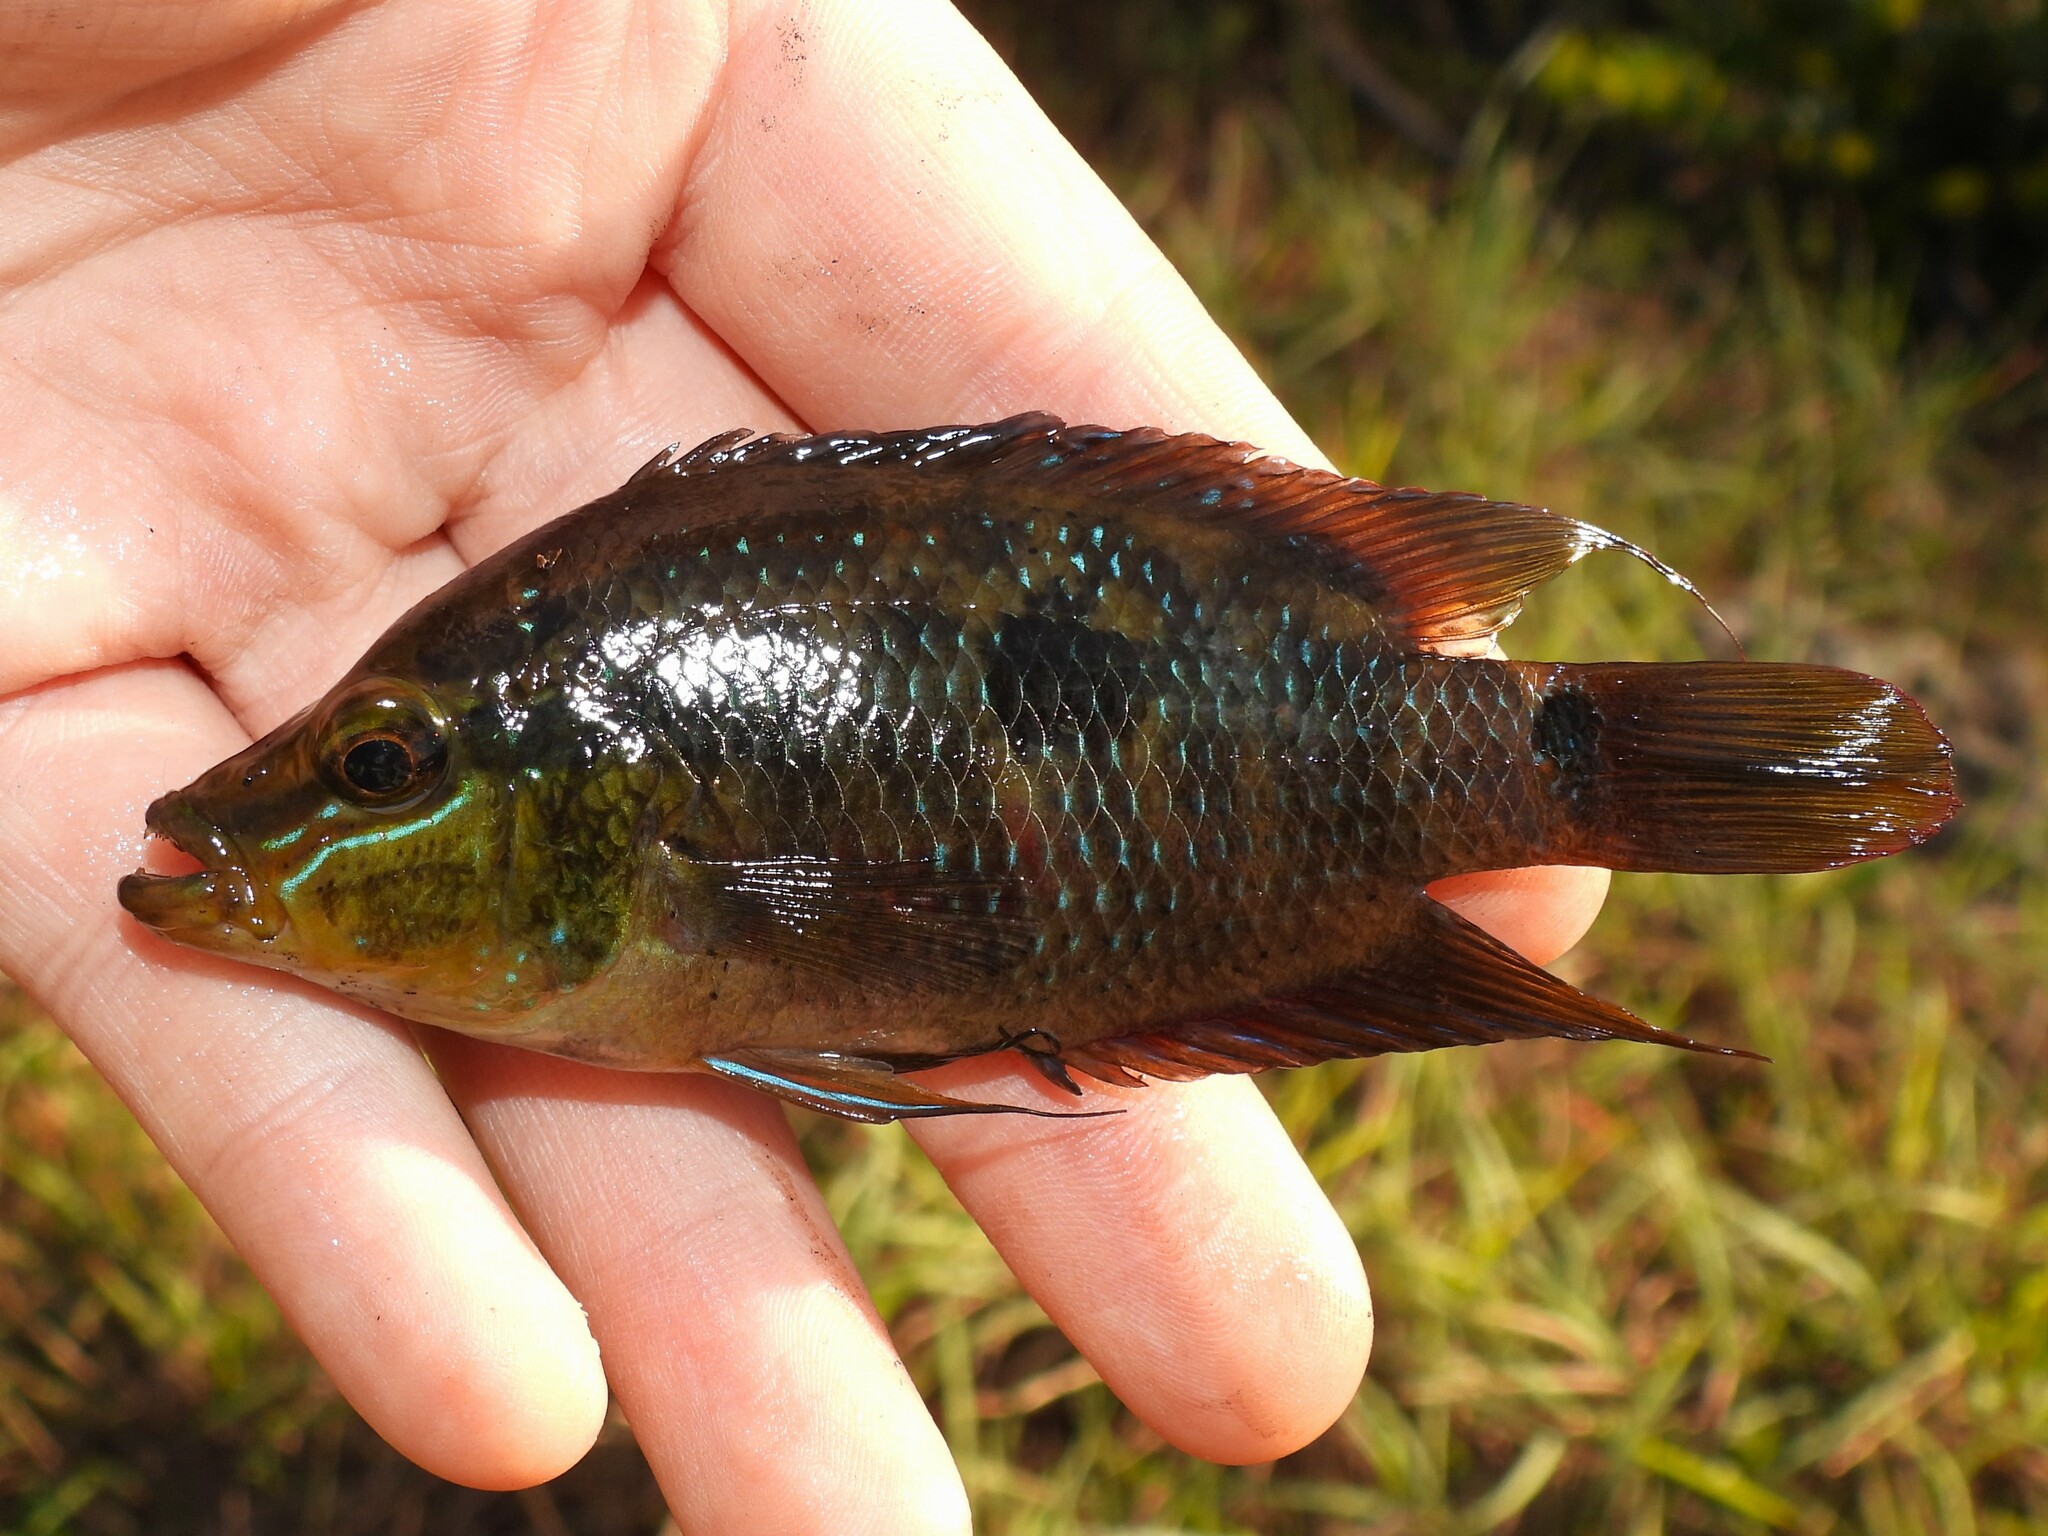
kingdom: Animalia
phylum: Chordata
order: Perciformes
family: Cichlidae
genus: Trichromis
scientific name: Trichromis salvini
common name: Yellow belly cichlid
